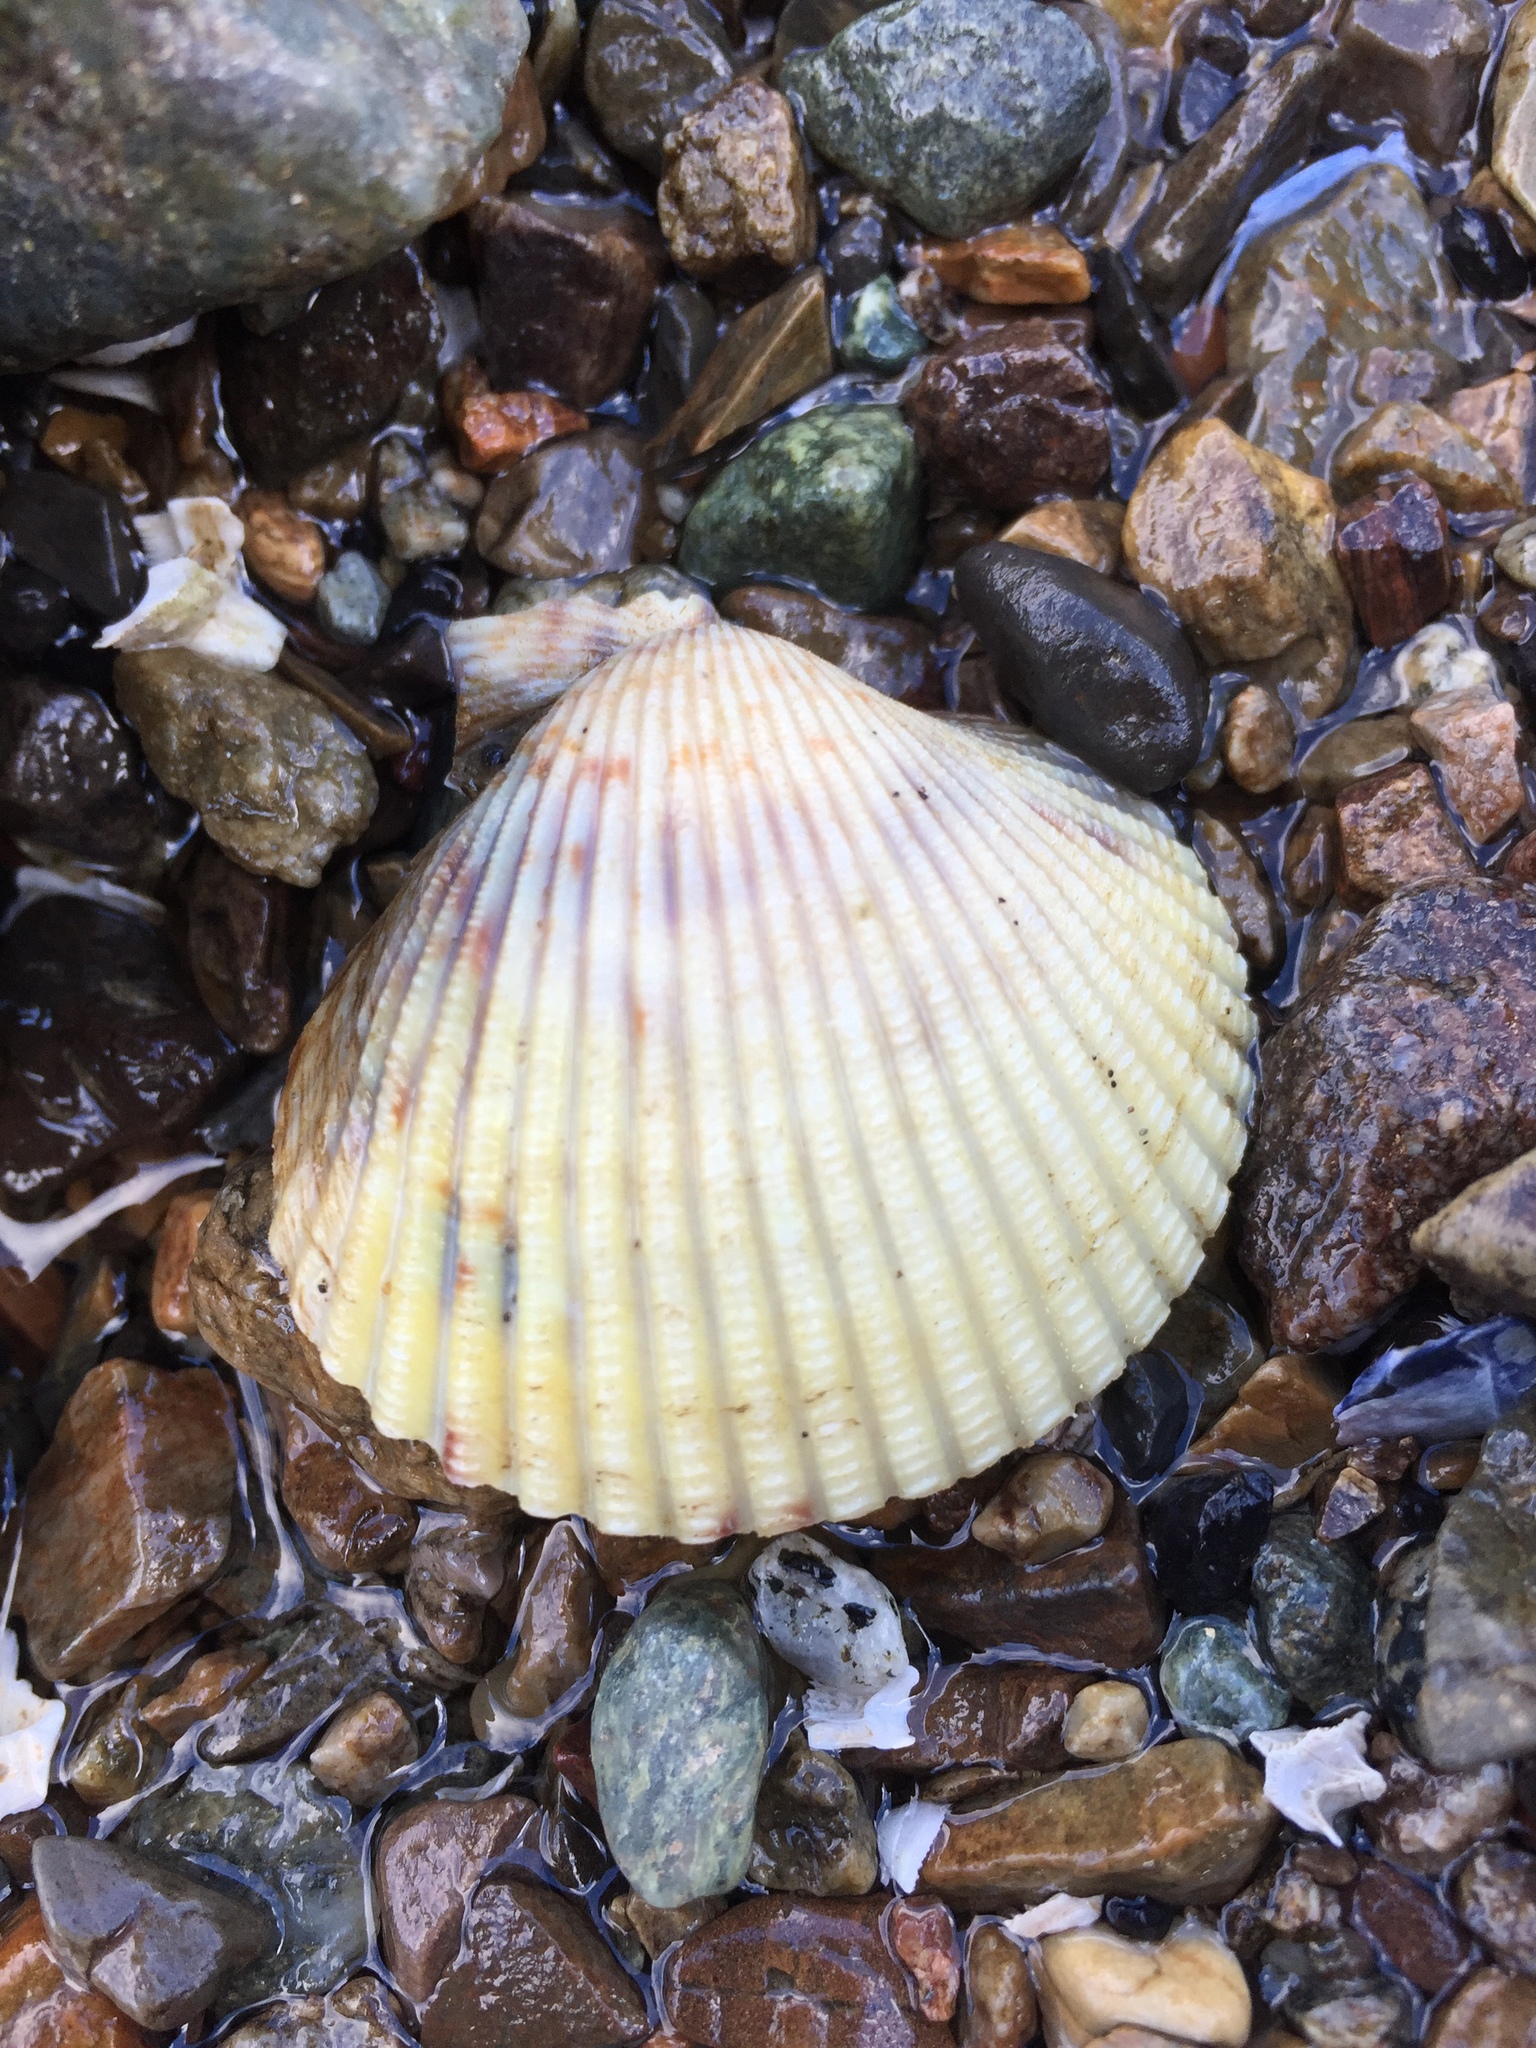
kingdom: Animalia
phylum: Mollusca
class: Bivalvia
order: Cardiida
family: Cardiidae
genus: Clinocardium
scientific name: Clinocardium nuttallii
